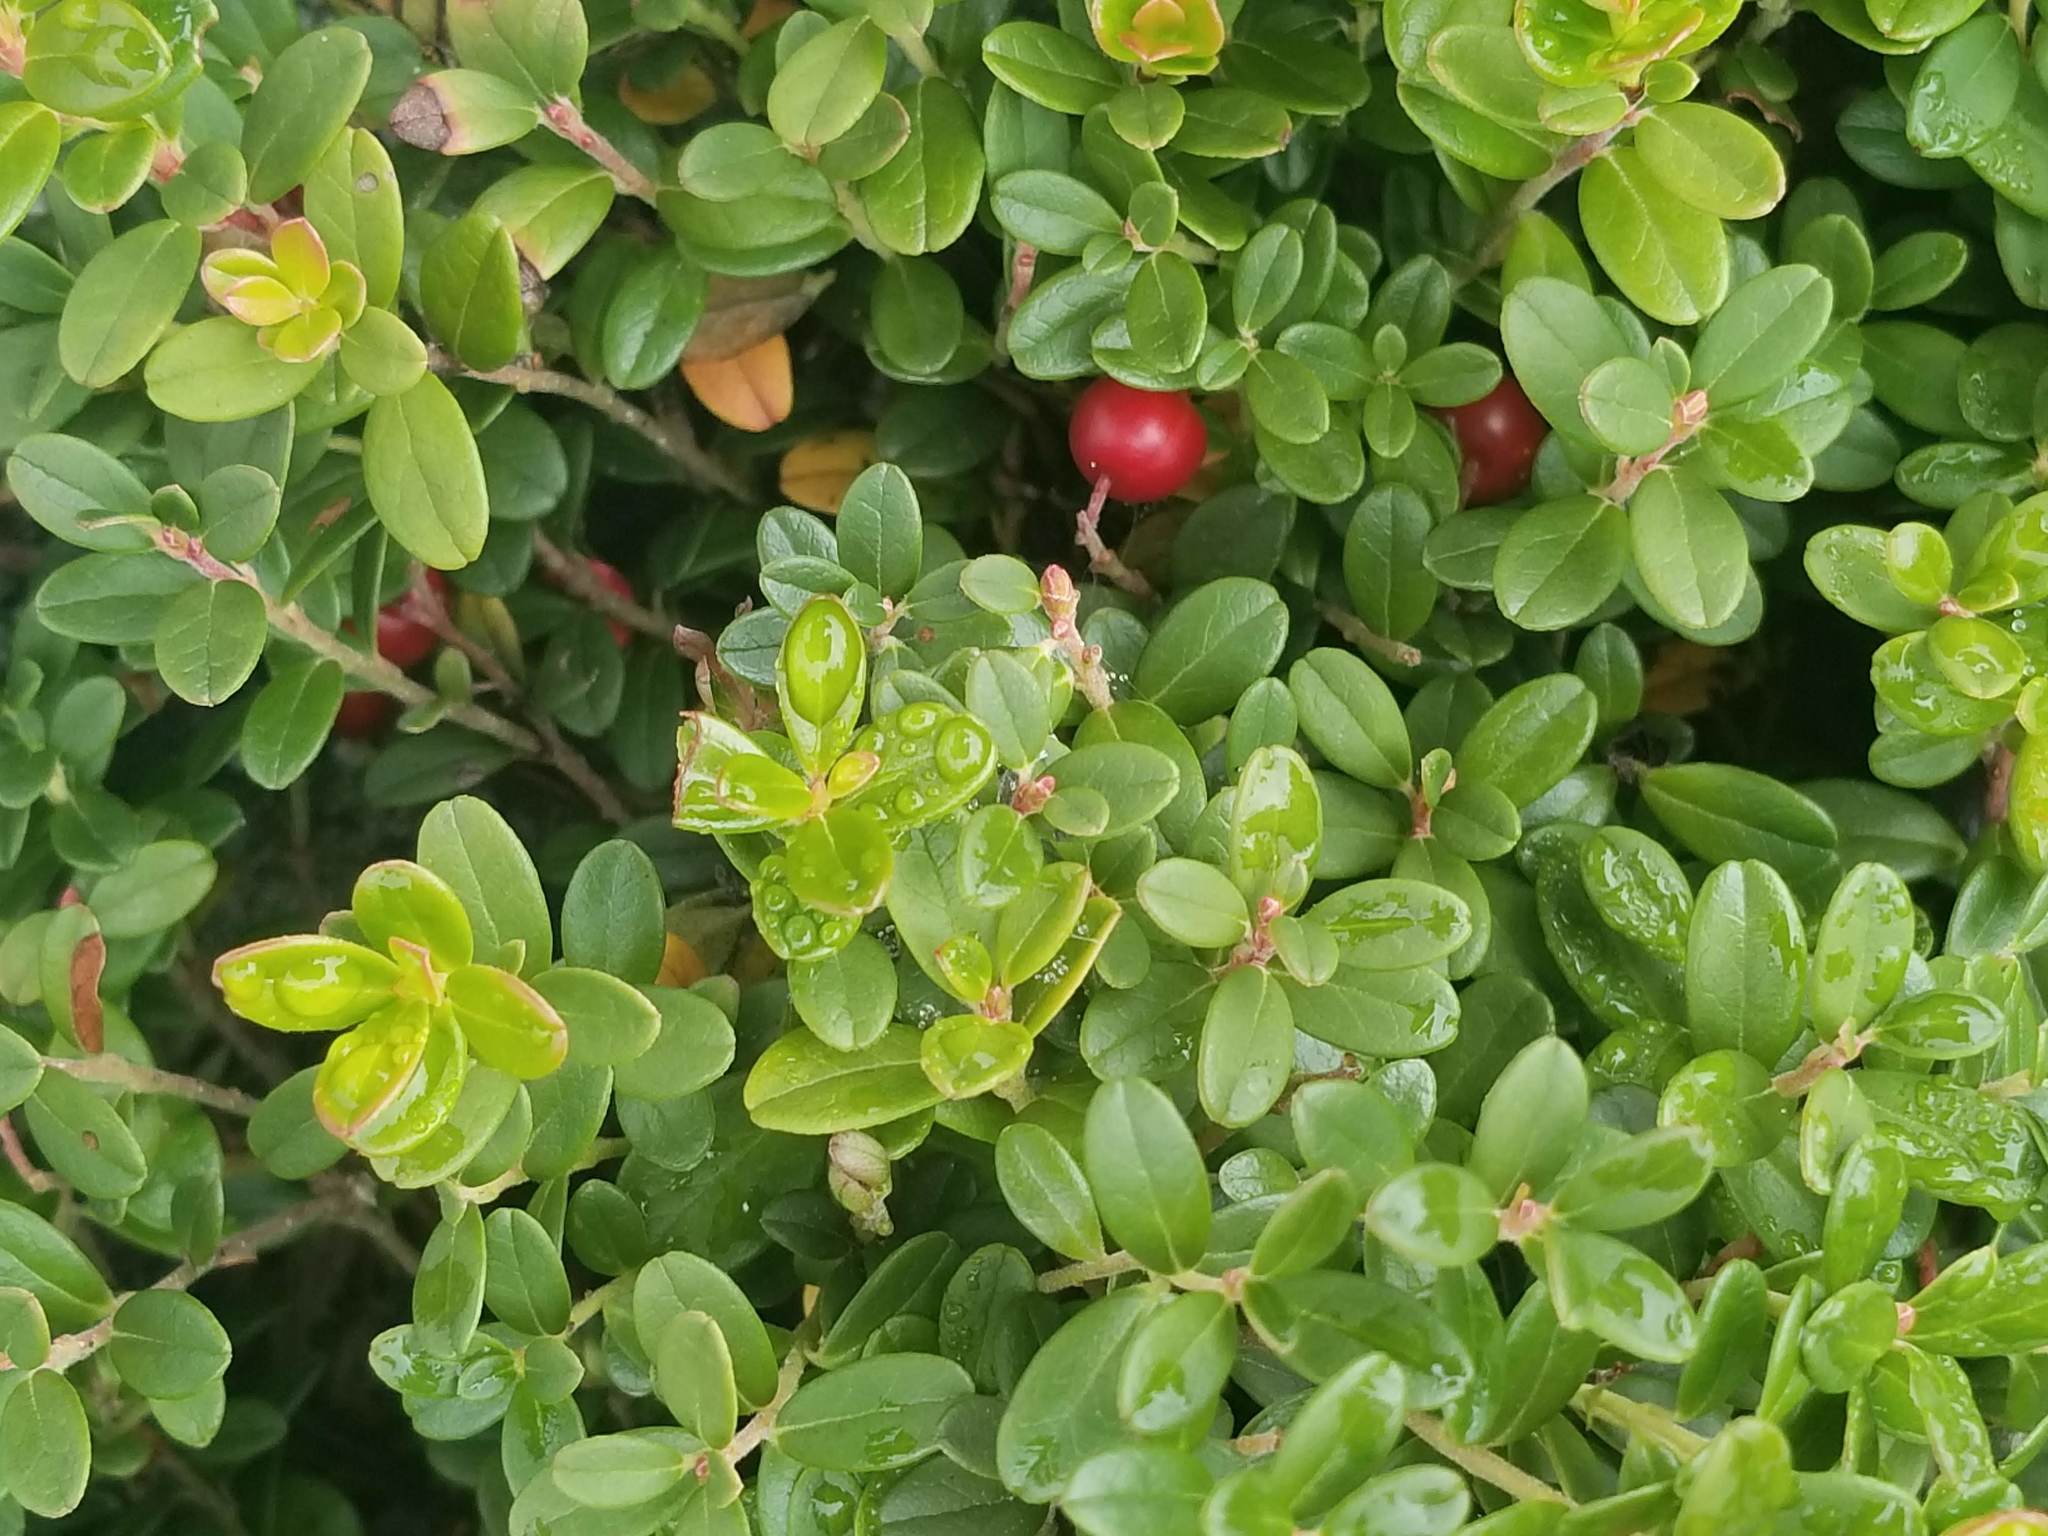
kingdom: Plantae
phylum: Tracheophyta
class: Magnoliopsida
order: Ericales
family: Ericaceae
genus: Vaccinium
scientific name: Vaccinium vitis-idaea
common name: Cowberry
